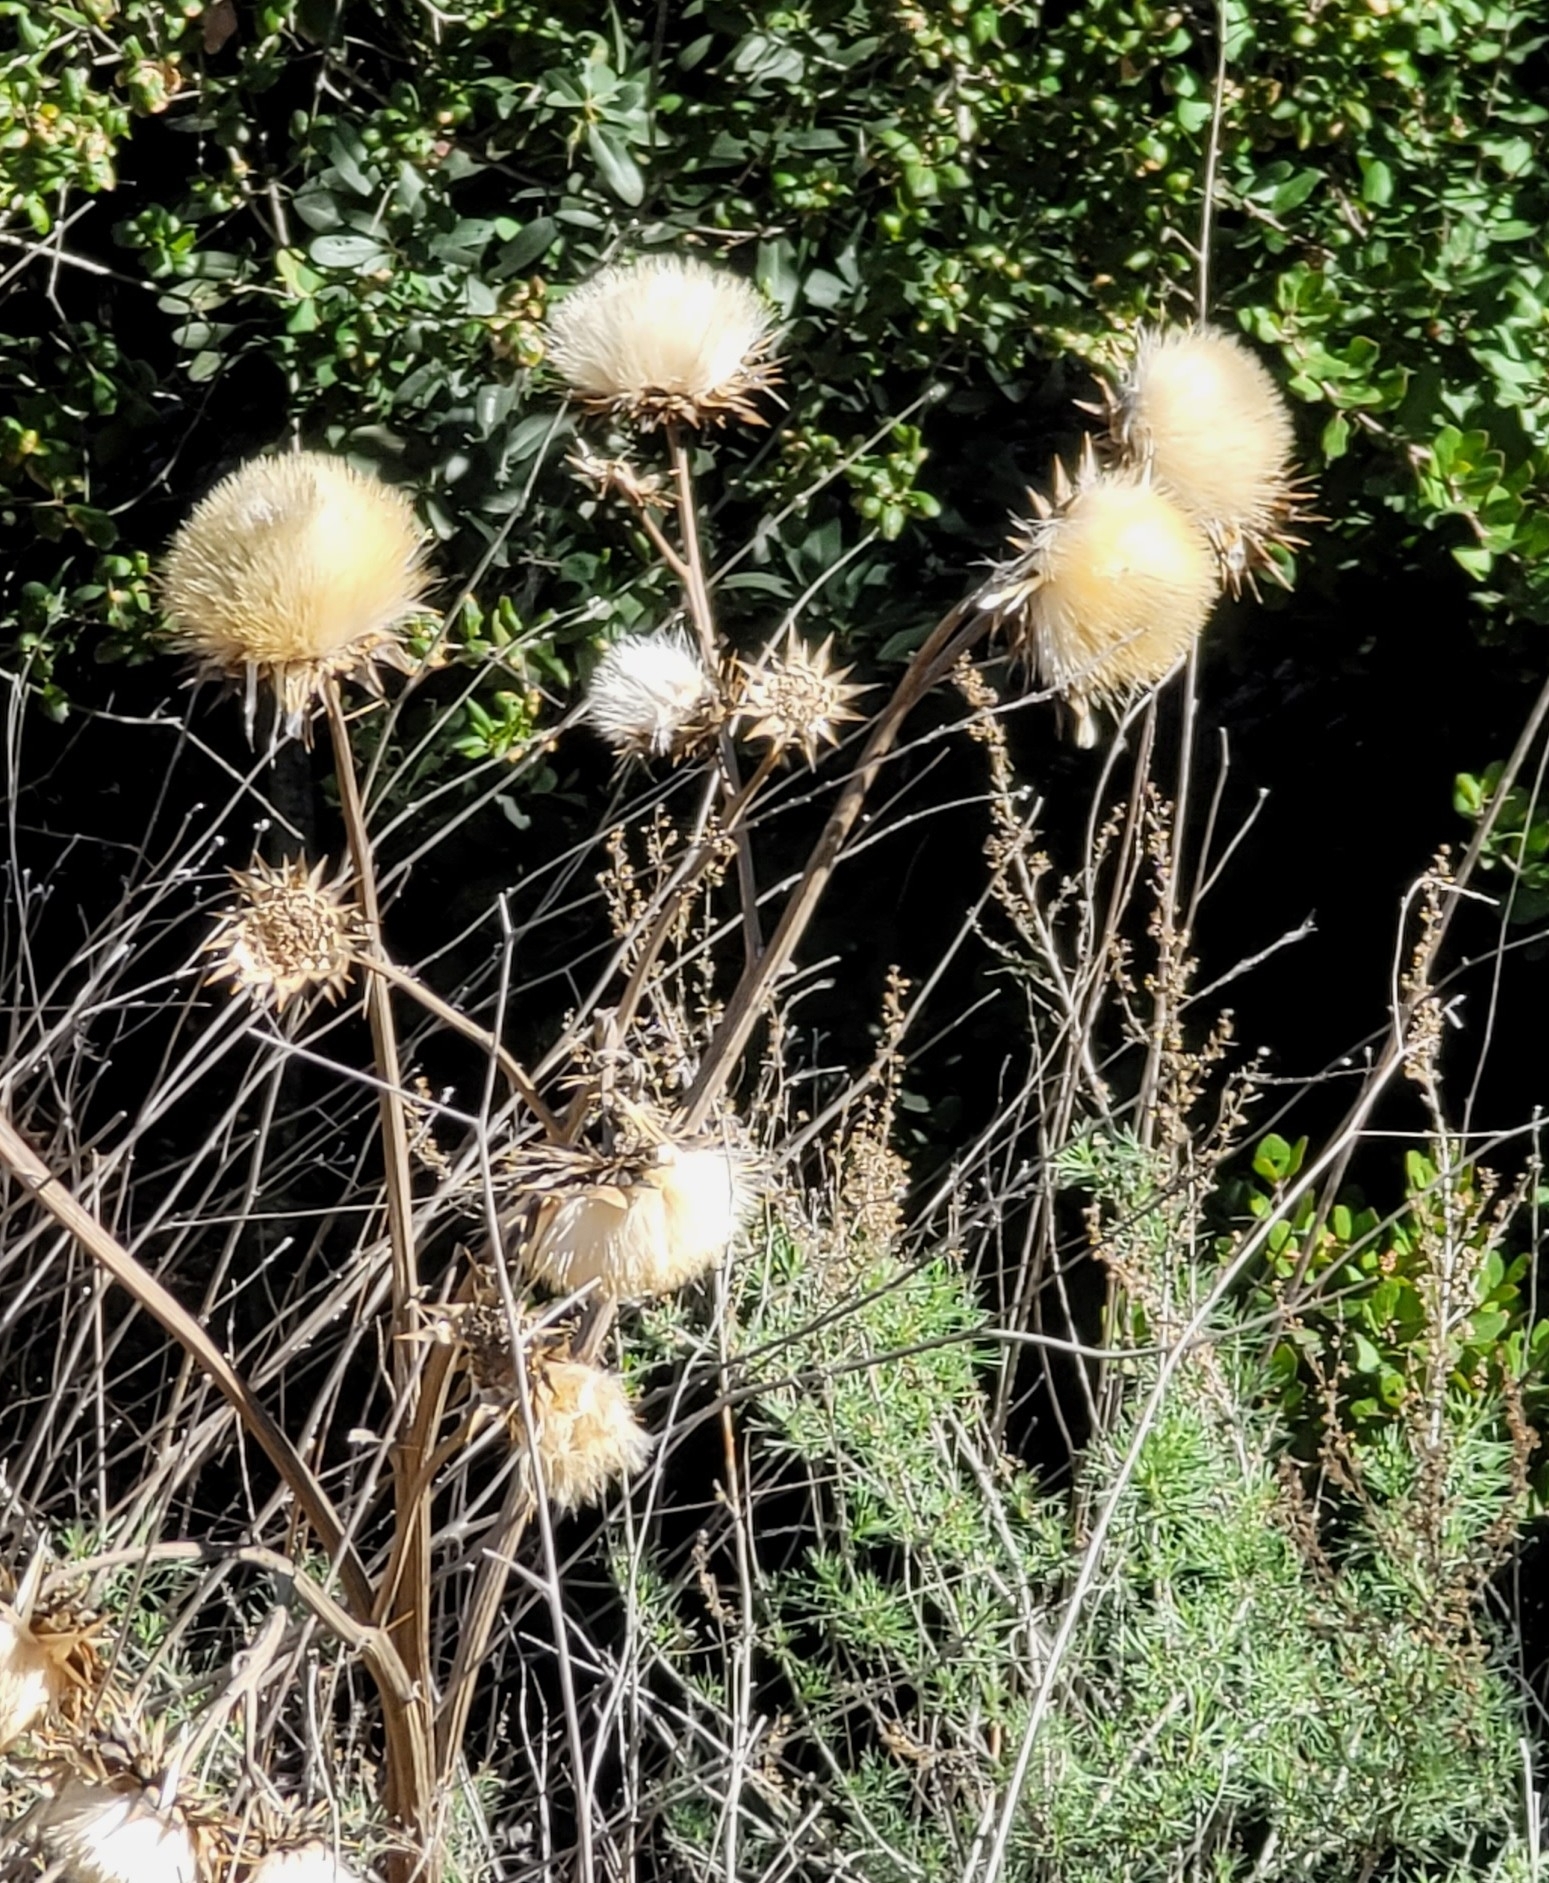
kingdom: Plantae
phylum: Tracheophyta
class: Magnoliopsida
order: Asterales
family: Asteraceae
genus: Cynara
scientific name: Cynara cardunculus
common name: Globe artichoke
